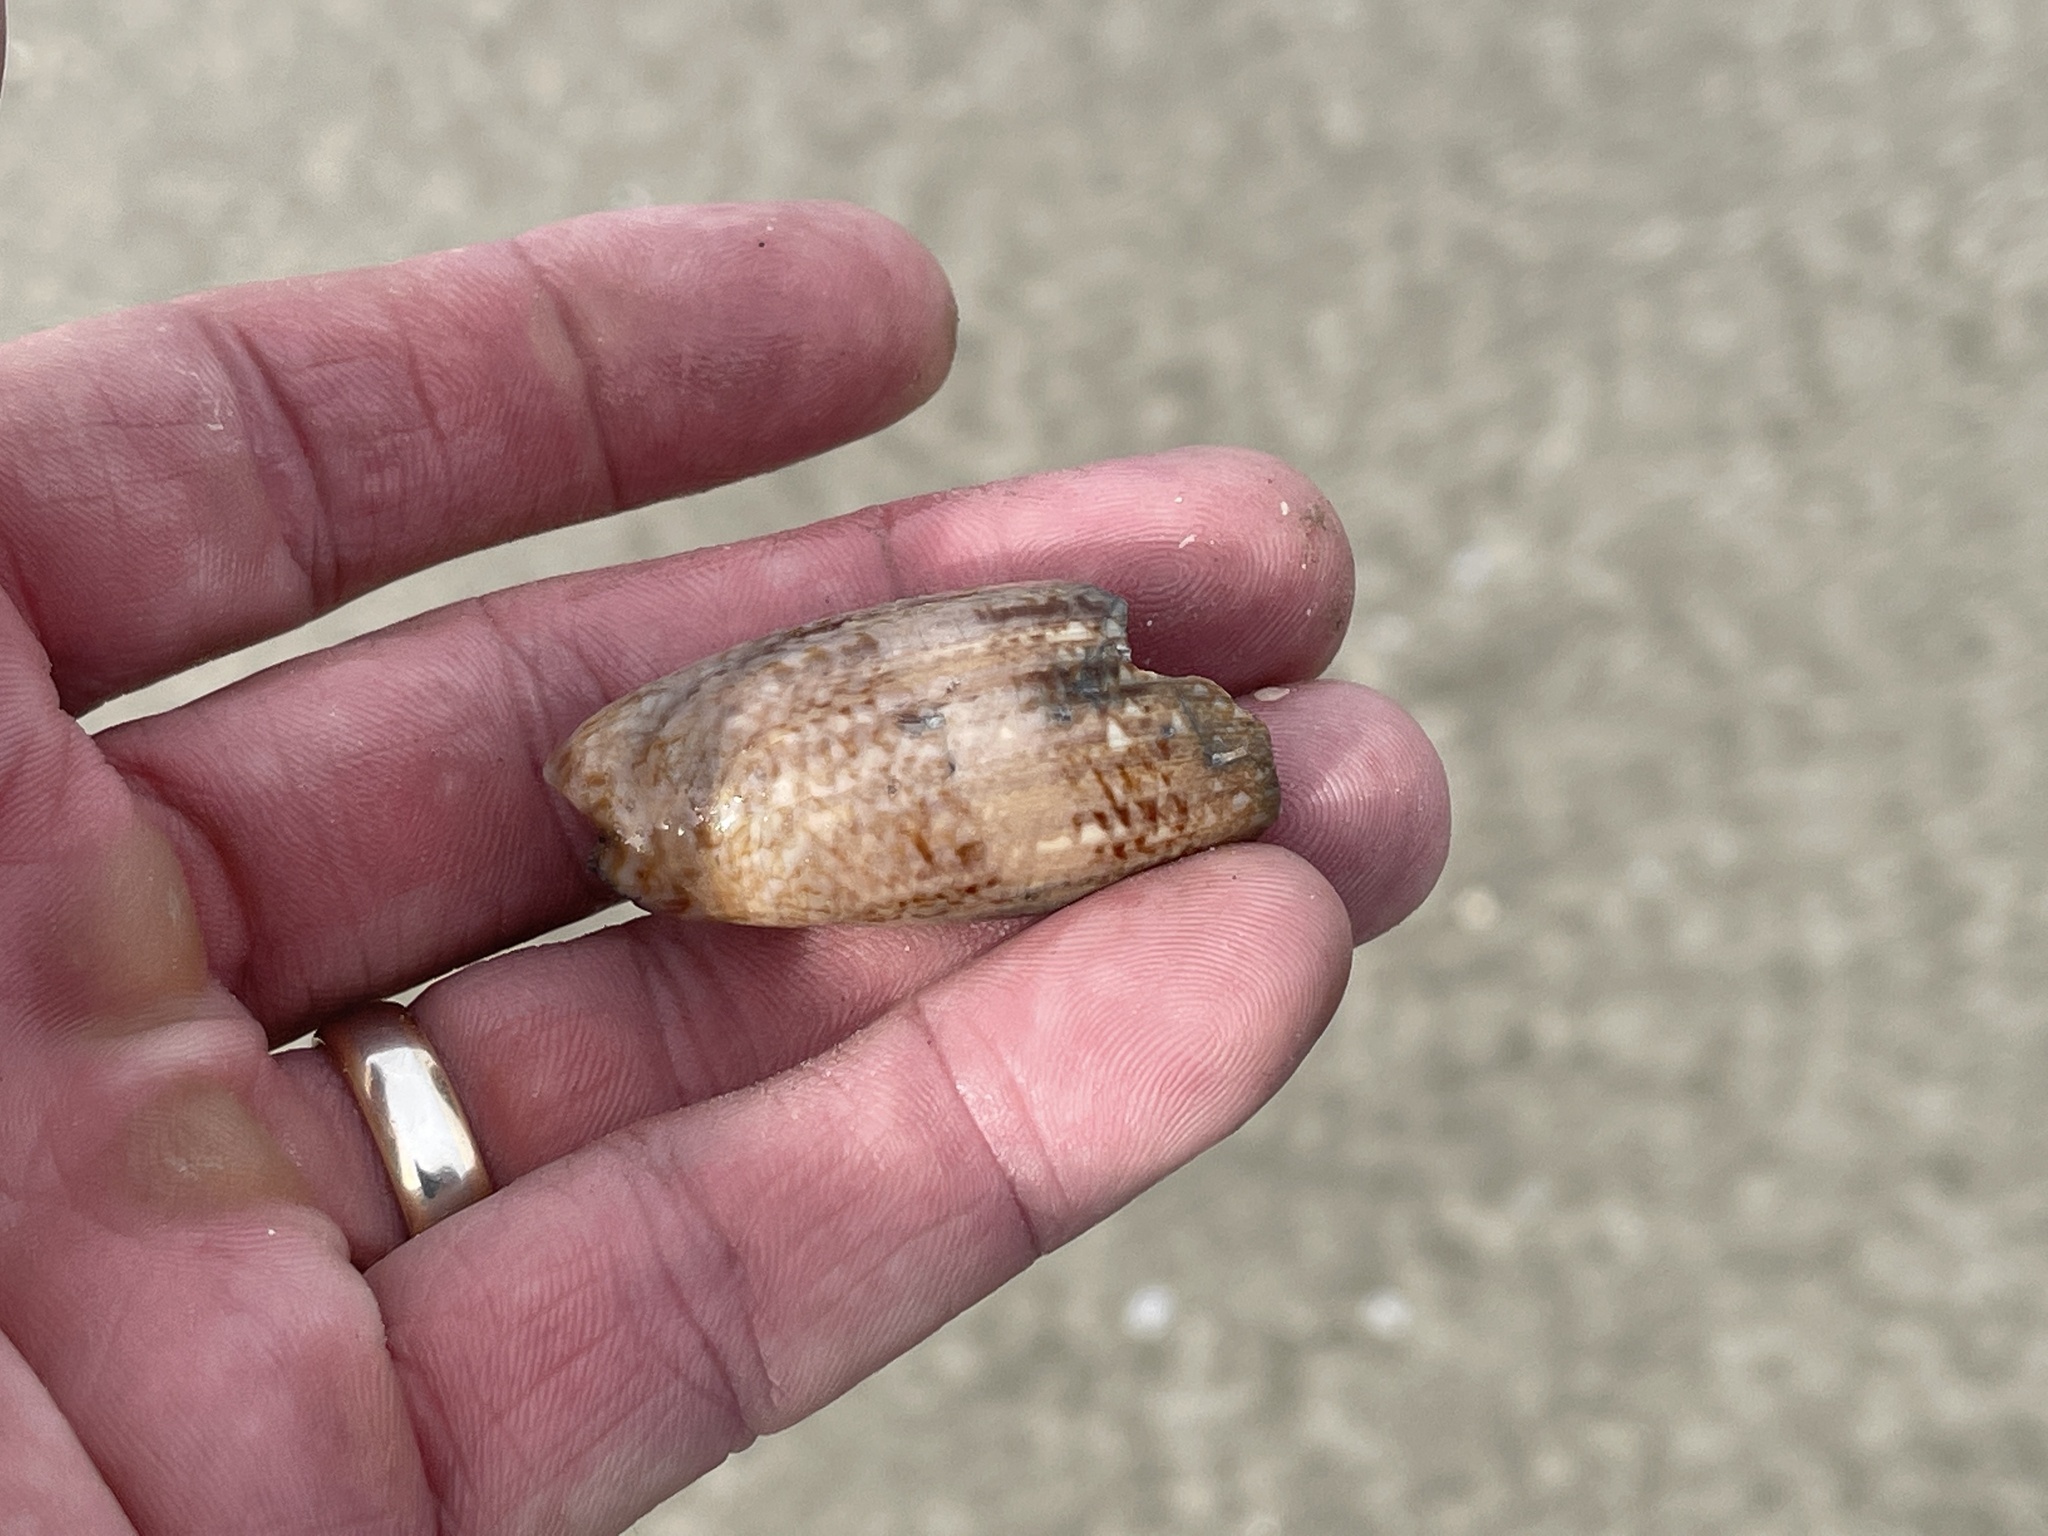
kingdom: Animalia
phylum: Mollusca
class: Gastropoda
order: Neogastropoda
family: Olividae
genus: Oliva
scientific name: Oliva sayana
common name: Lettered olive
